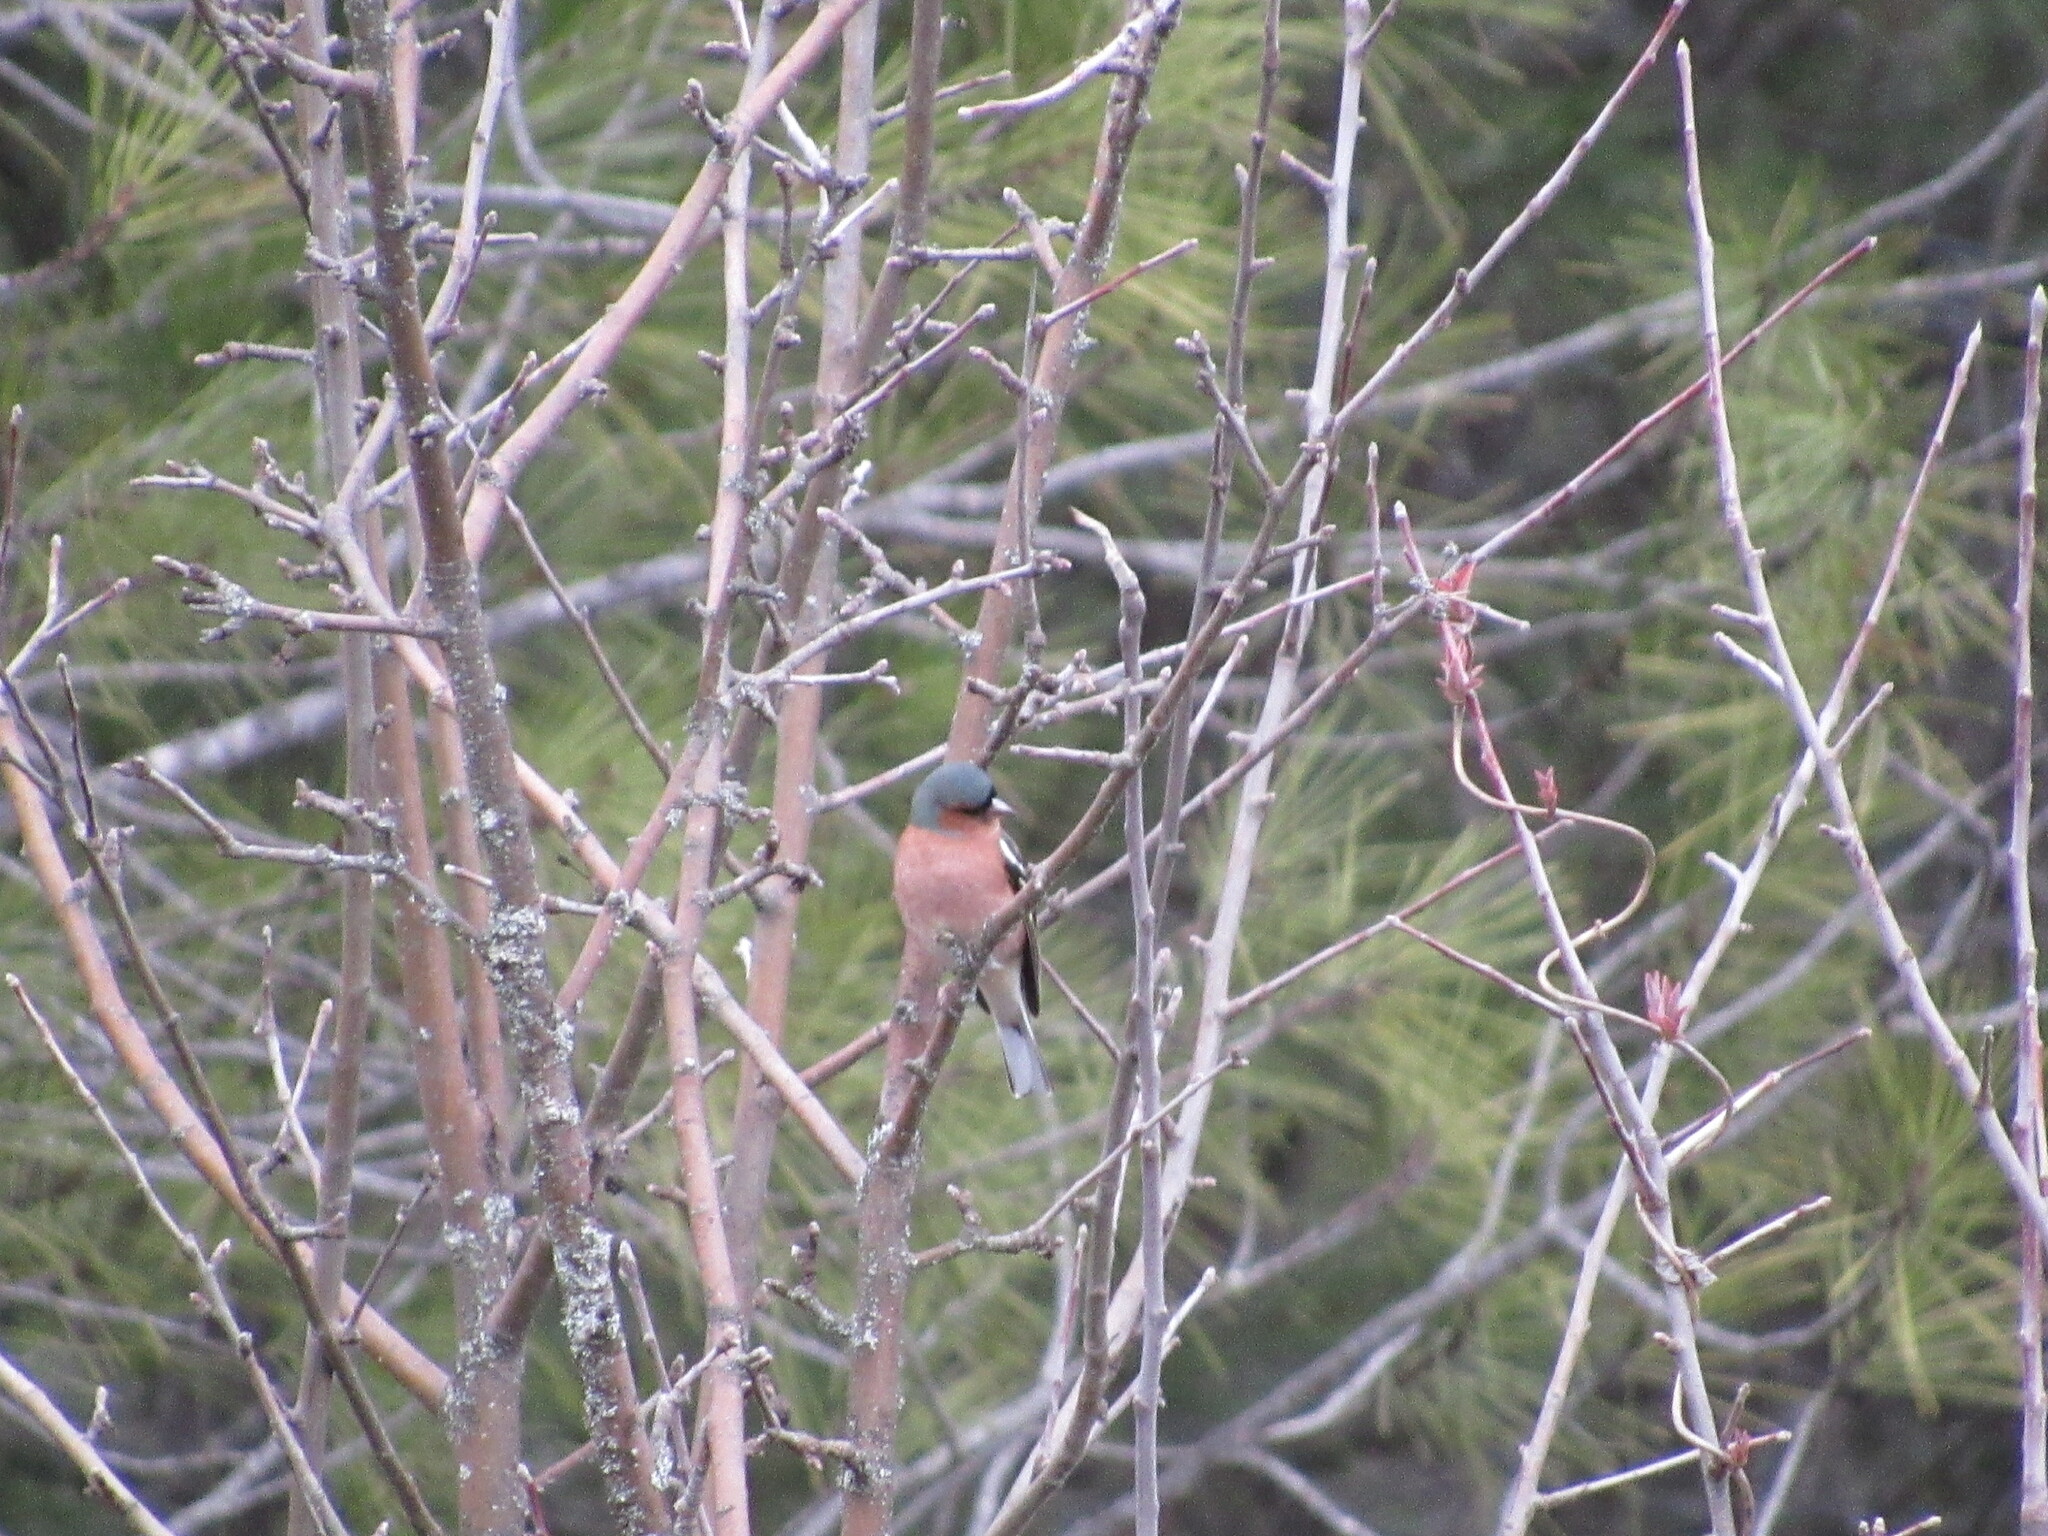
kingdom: Animalia
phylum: Chordata
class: Aves
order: Passeriformes
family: Fringillidae
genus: Fringilla
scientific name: Fringilla coelebs
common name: Common chaffinch
